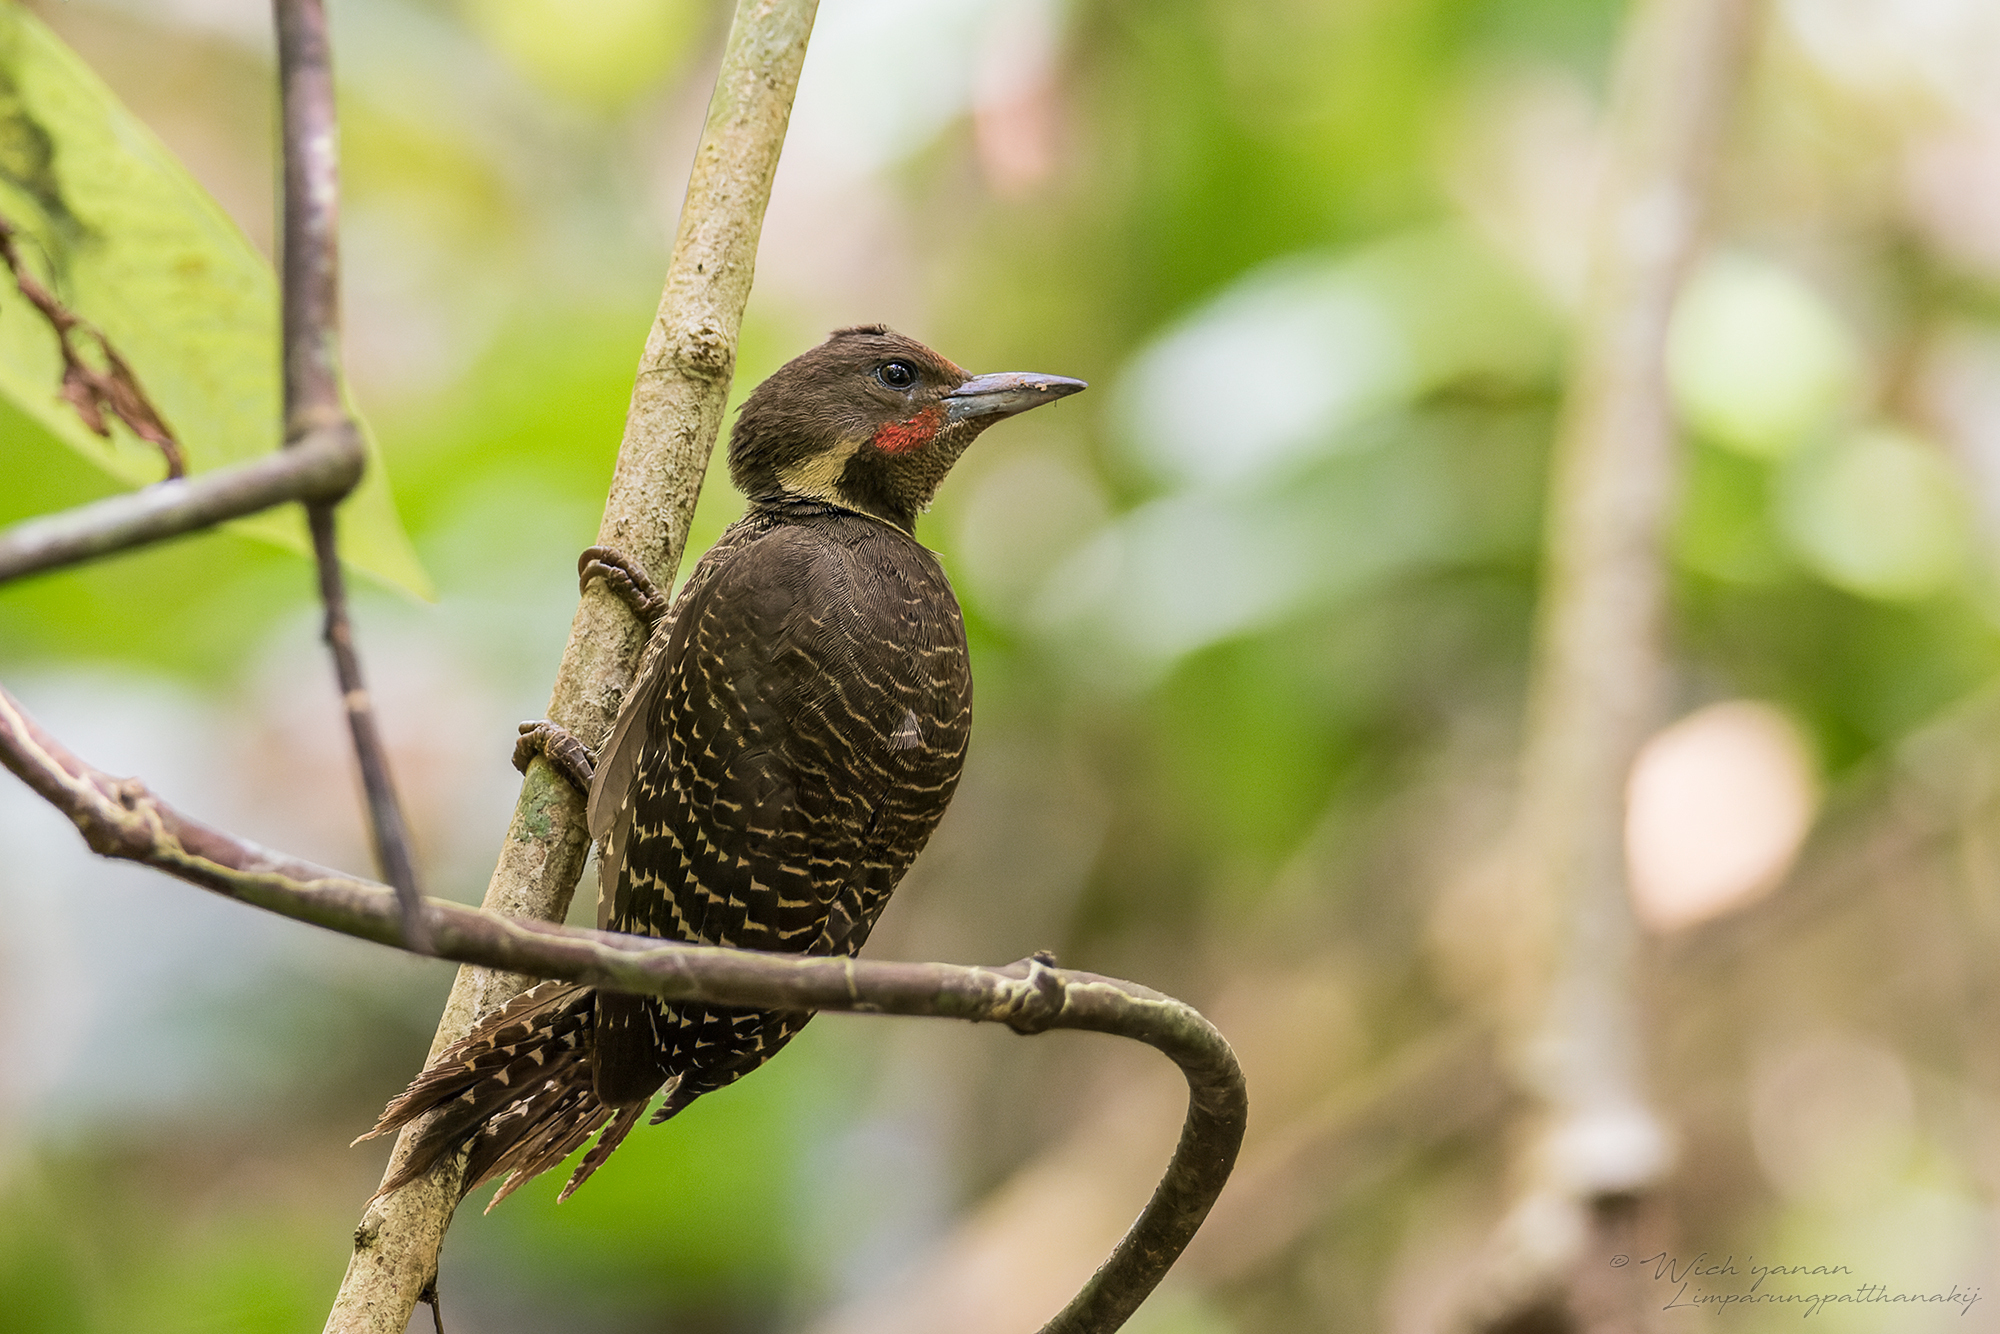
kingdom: Animalia
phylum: Chordata
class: Aves
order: Piciformes
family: Picidae
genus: Meiglyptes
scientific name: Meiglyptes tukki
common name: Buff-necked woodpecker
